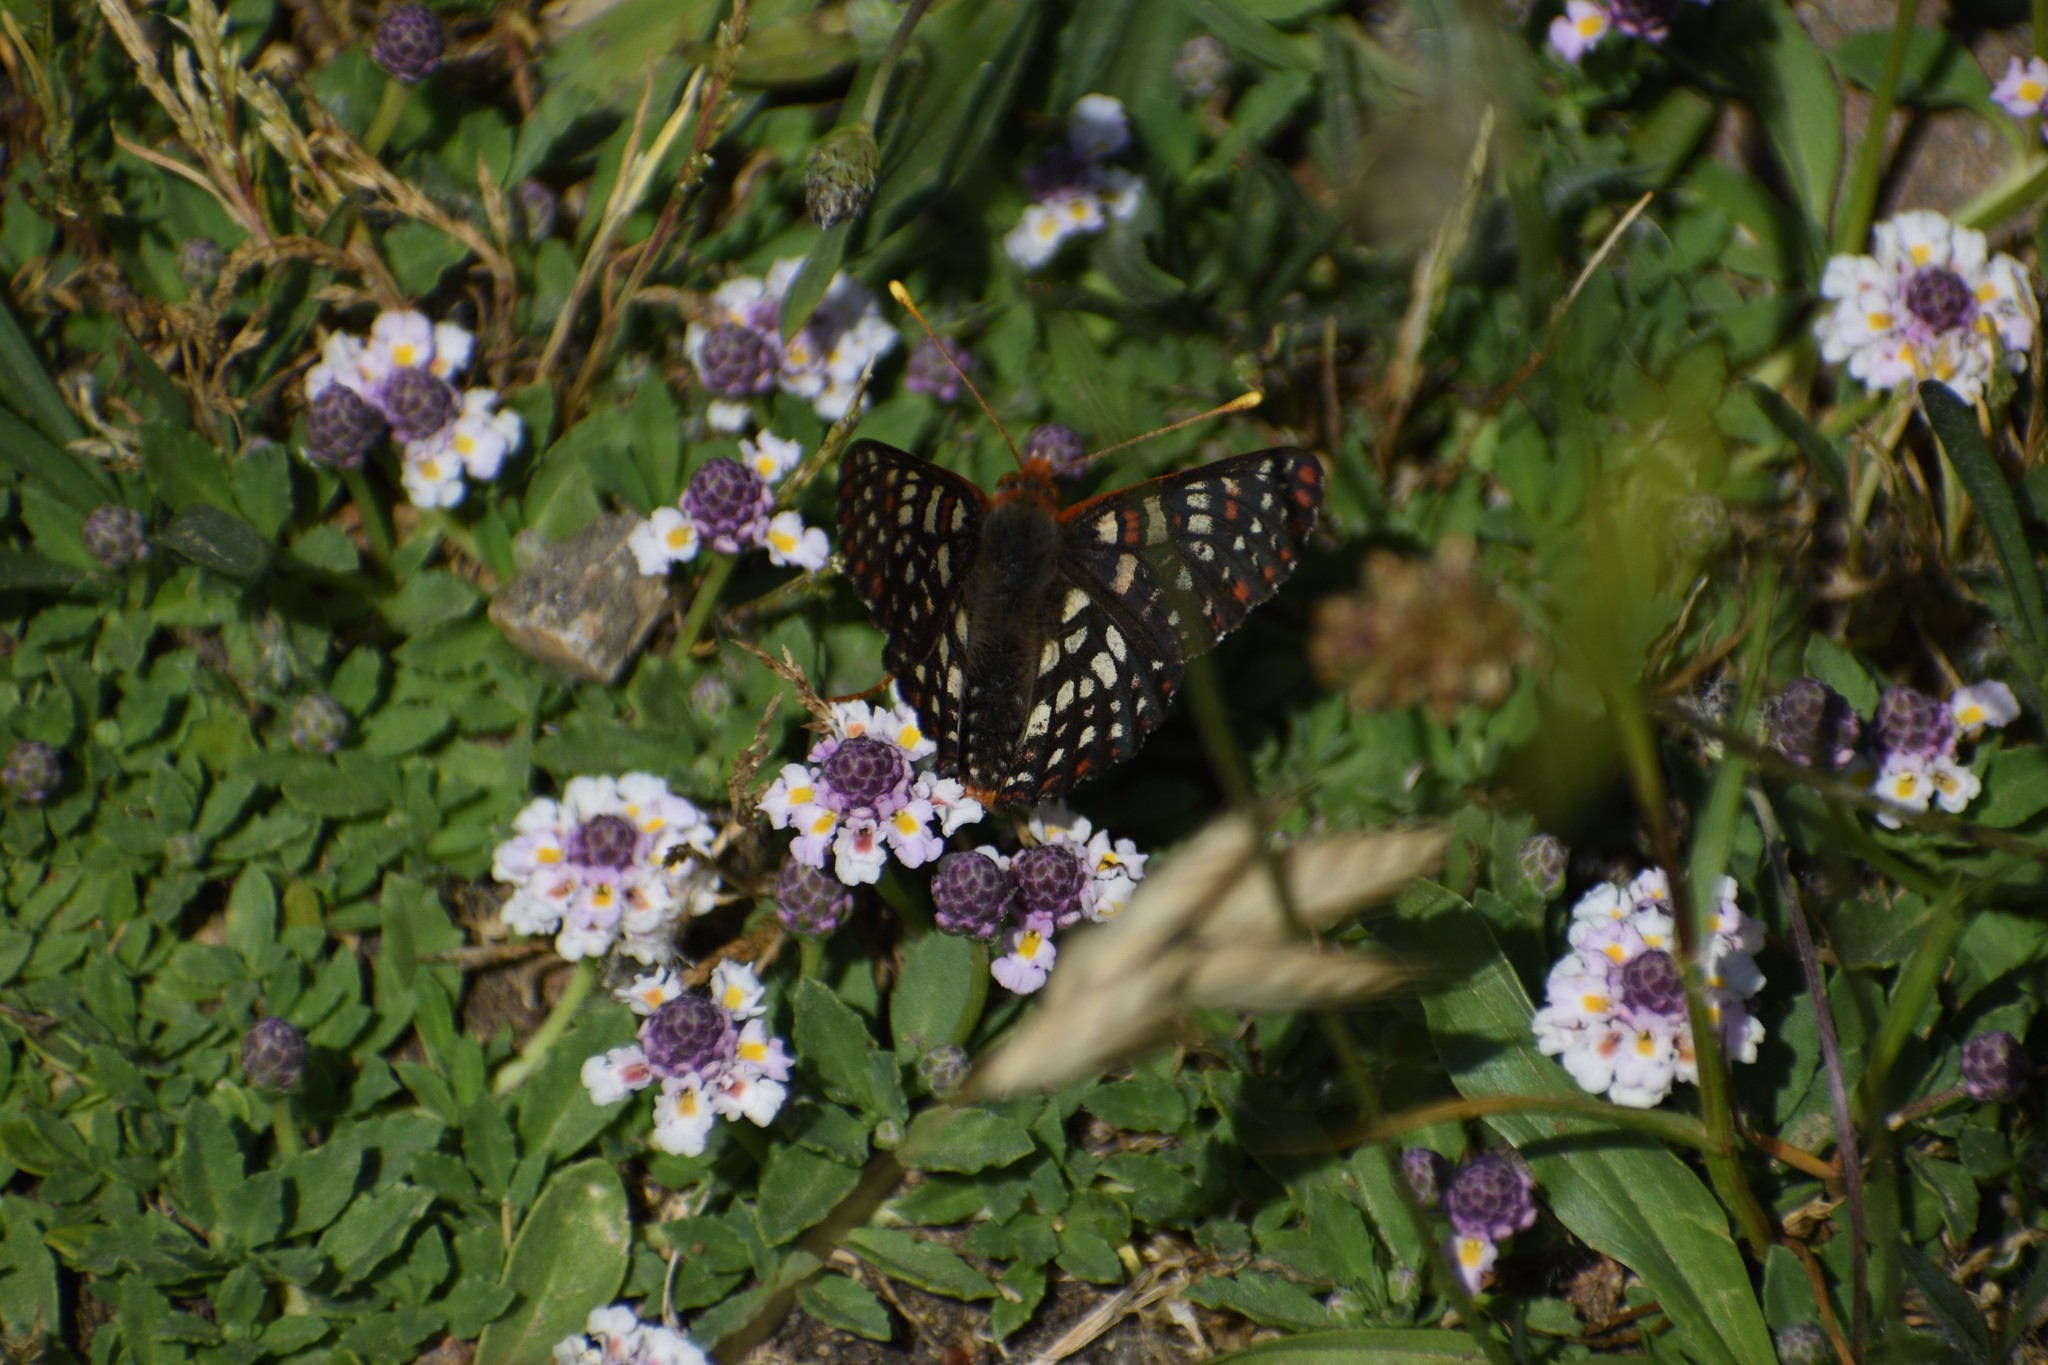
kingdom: Animalia
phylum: Arthropoda
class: Insecta
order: Lepidoptera
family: Nymphalidae
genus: Occidryas
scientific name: Occidryas chalcedona
